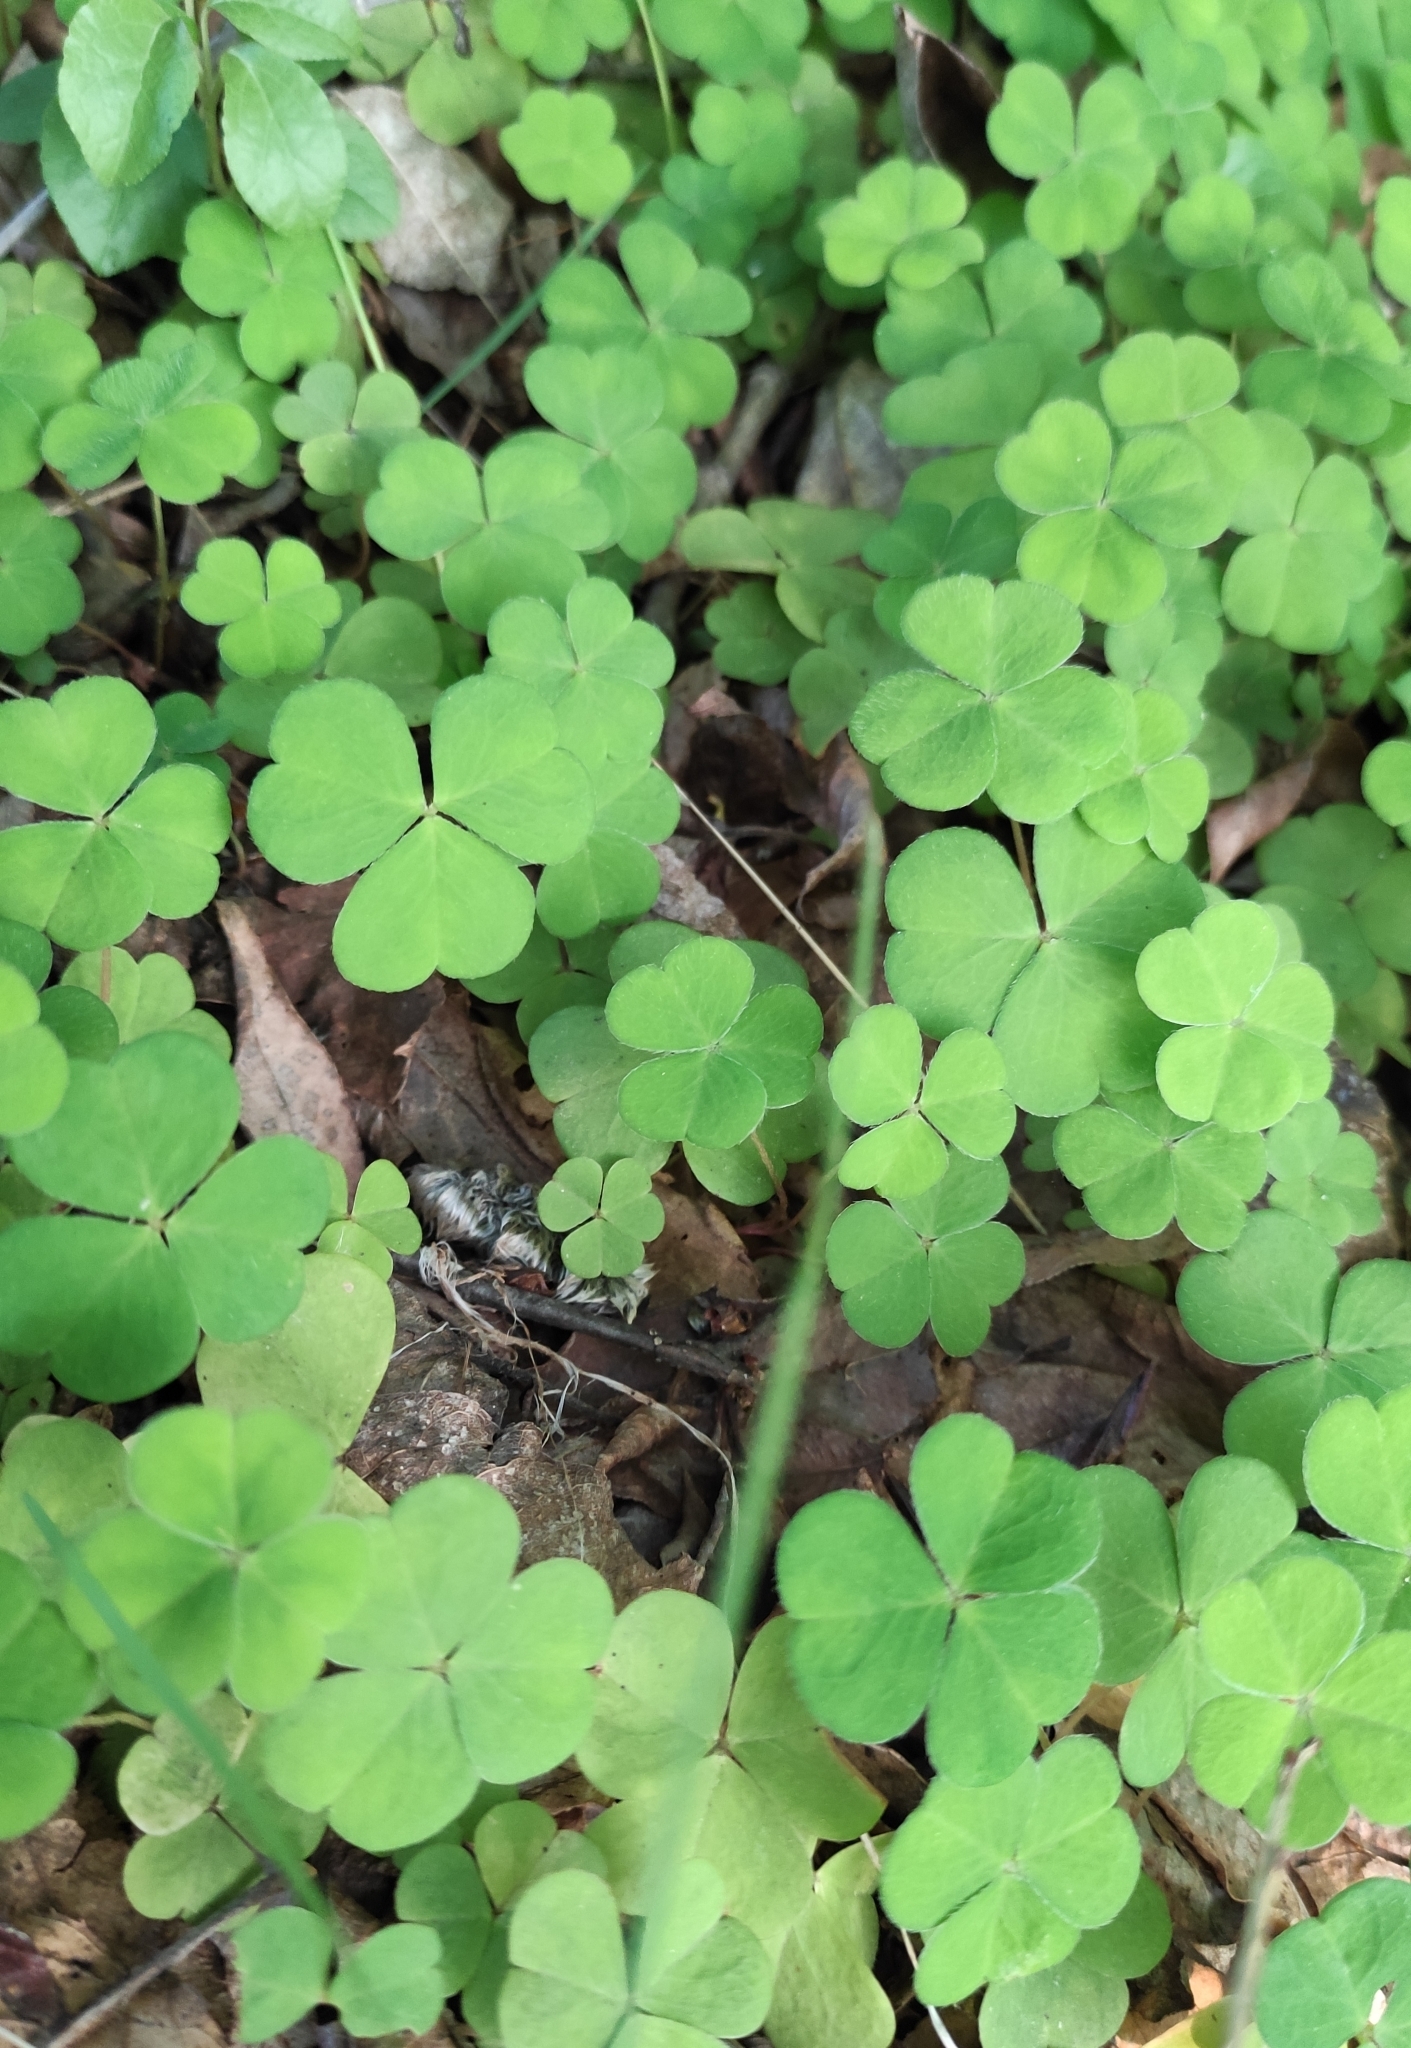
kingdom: Plantae
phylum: Tracheophyta
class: Magnoliopsida
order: Oxalidales
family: Oxalidaceae
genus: Oxalis
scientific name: Oxalis acetosella
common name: Wood-sorrel
